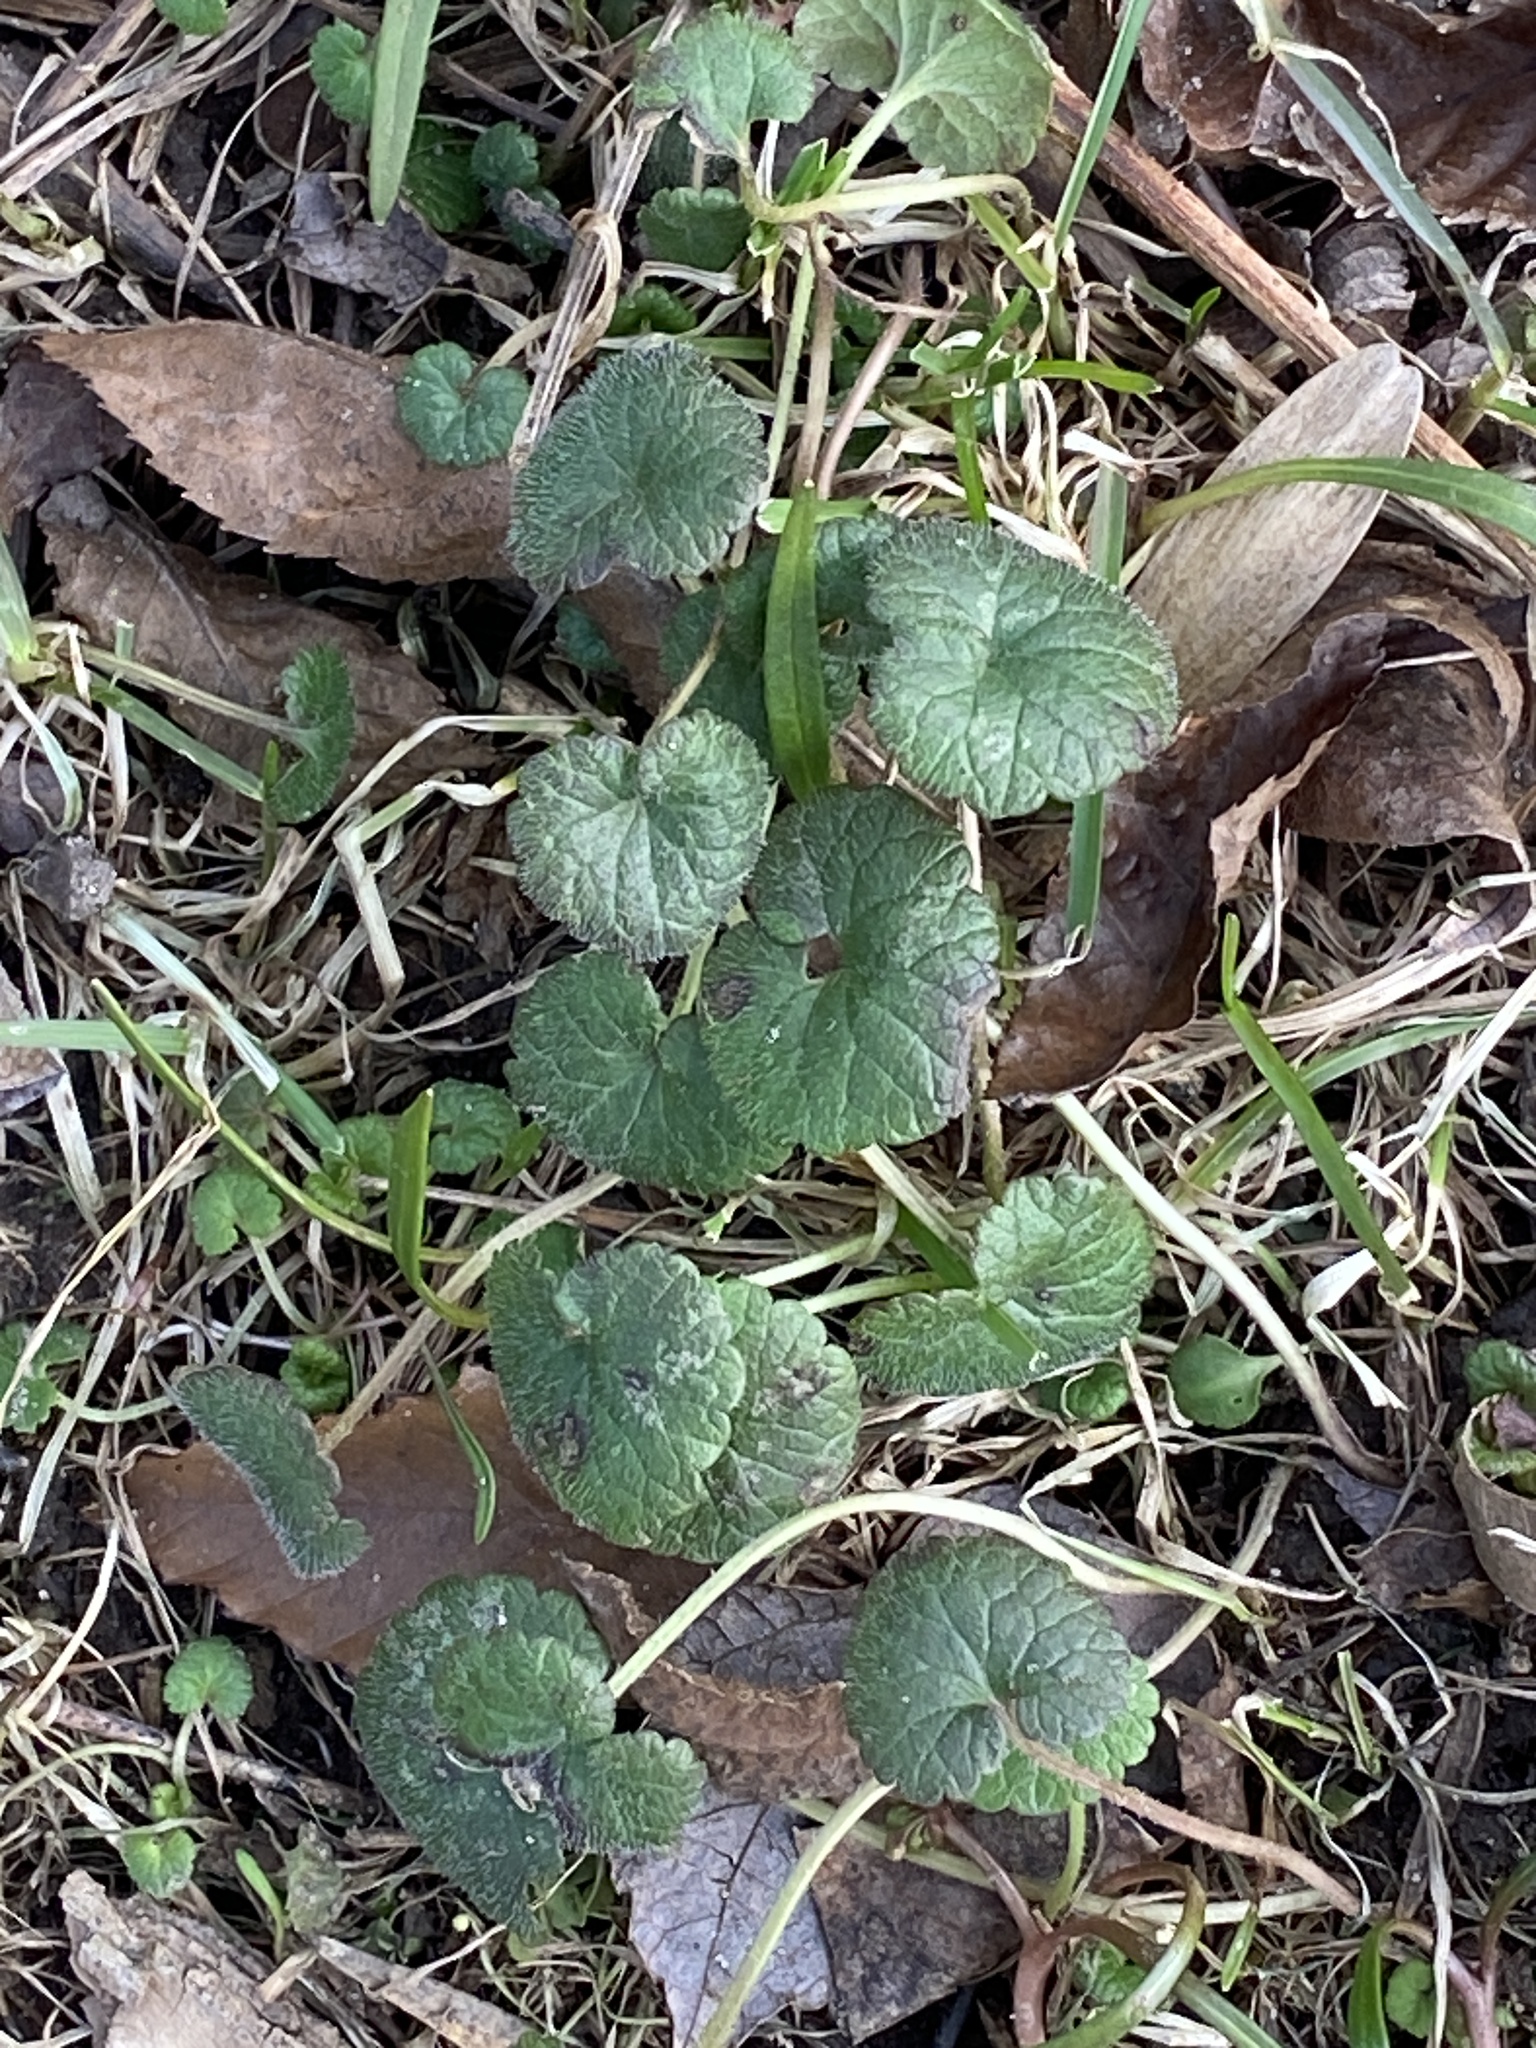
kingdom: Plantae
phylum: Tracheophyta
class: Magnoliopsida
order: Lamiales
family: Lamiaceae
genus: Glechoma
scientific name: Glechoma hederacea
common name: Ground ivy
